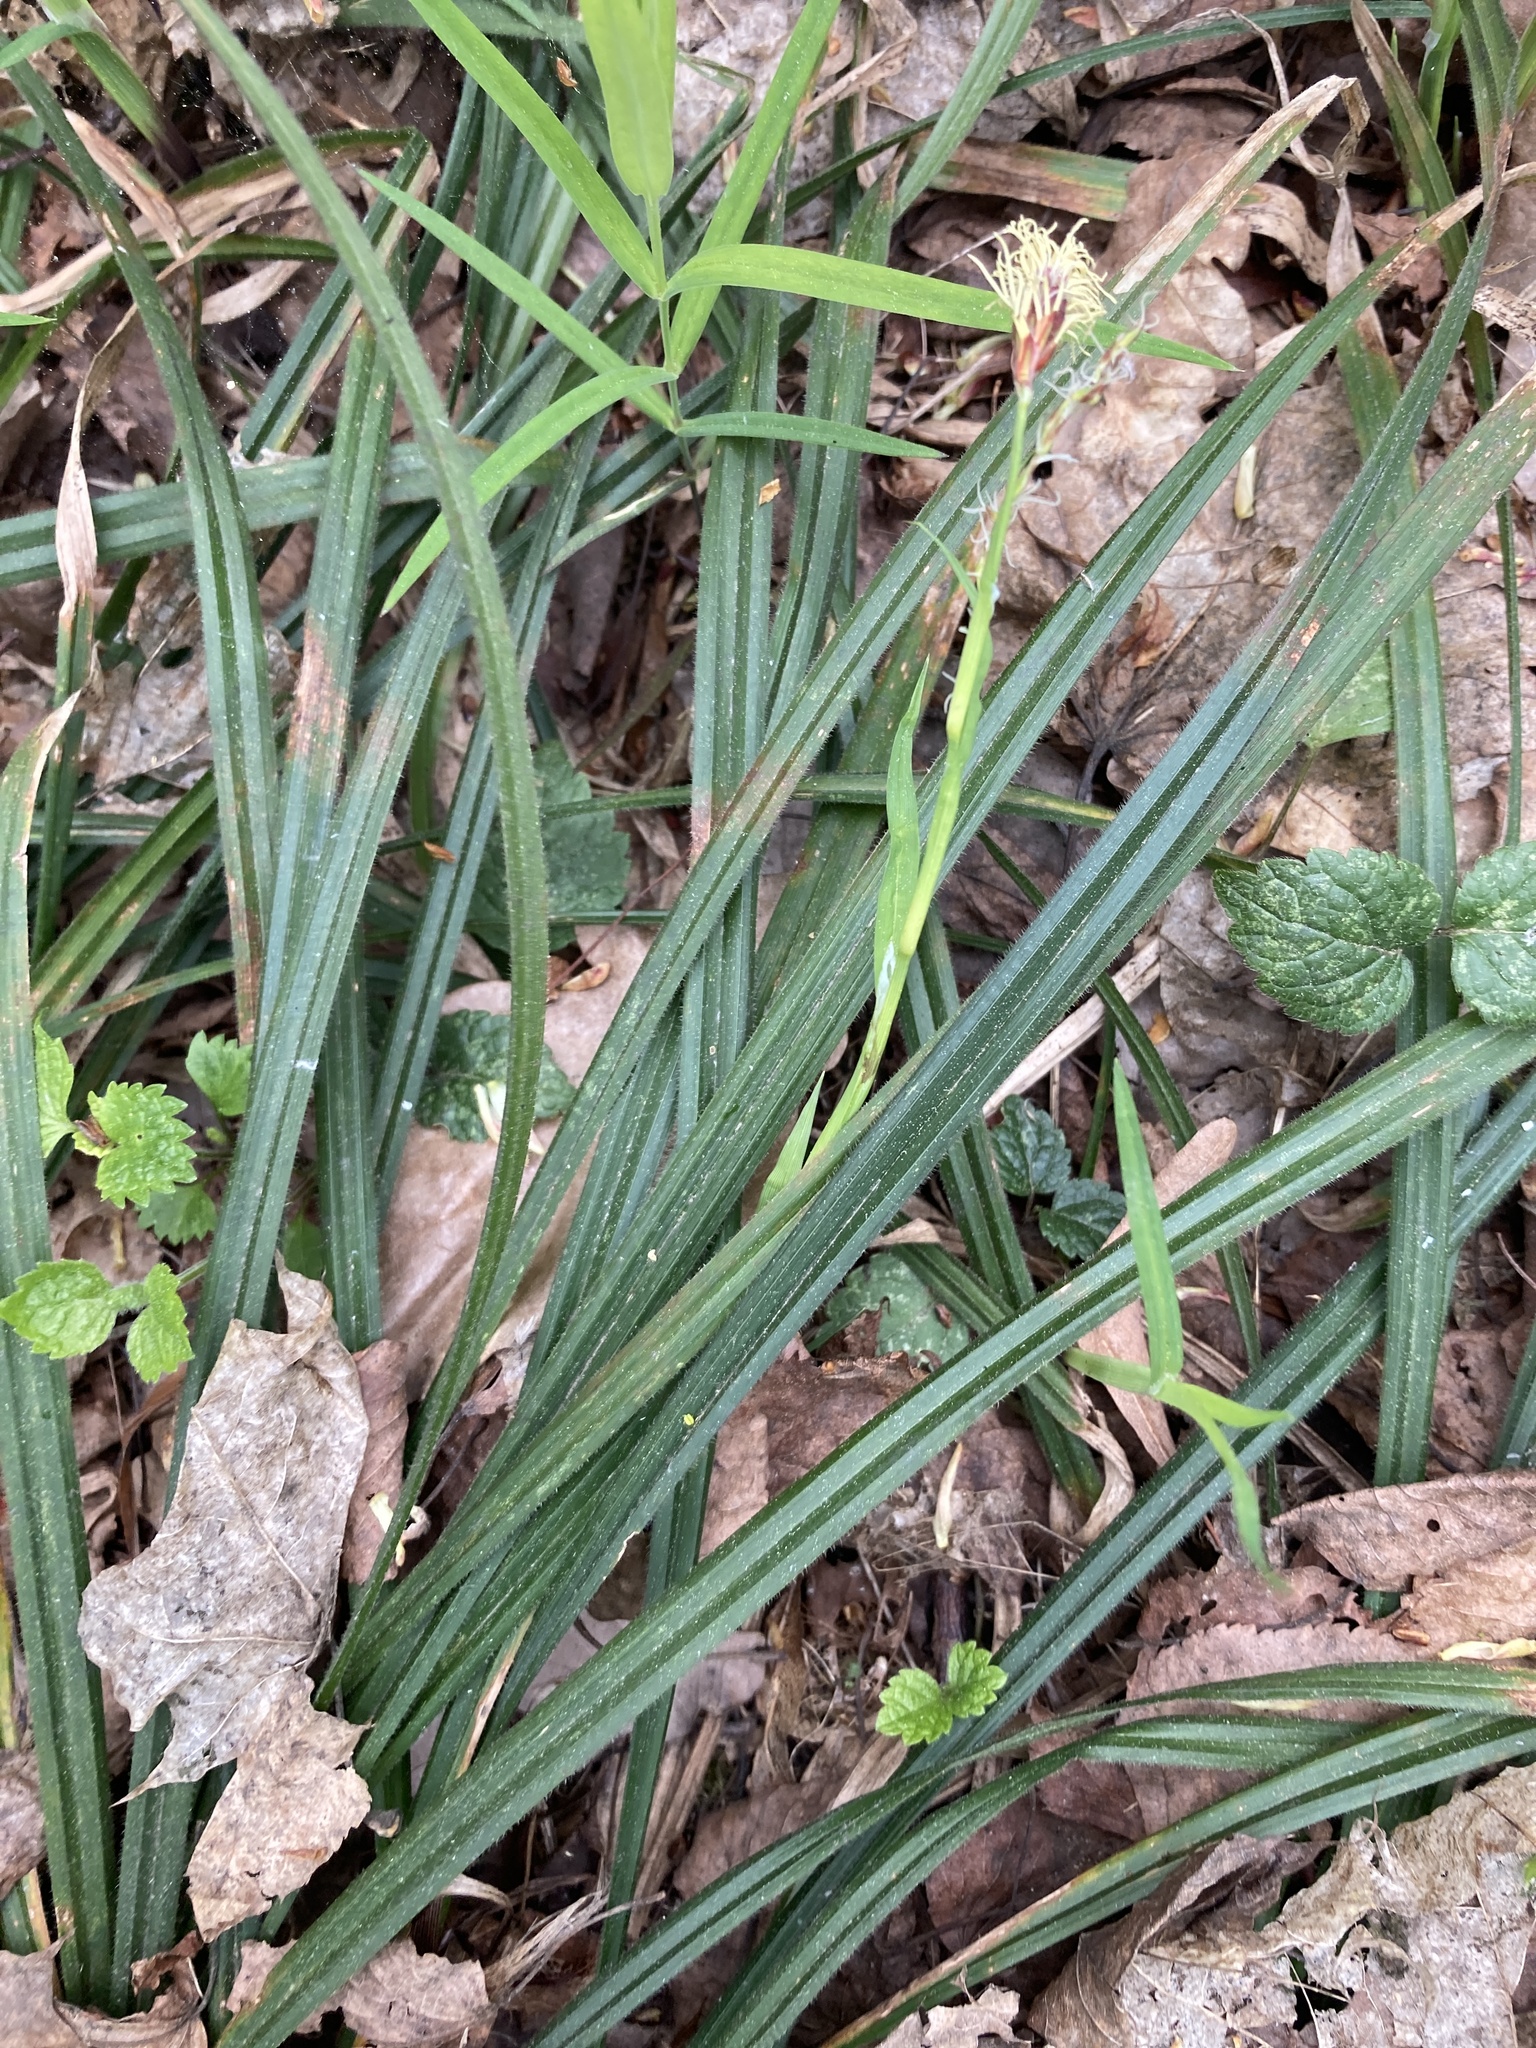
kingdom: Plantae
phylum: Tracheophyta
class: Liliopsida
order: Poales
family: Cyperaceae
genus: Carex
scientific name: Carex pilosa
